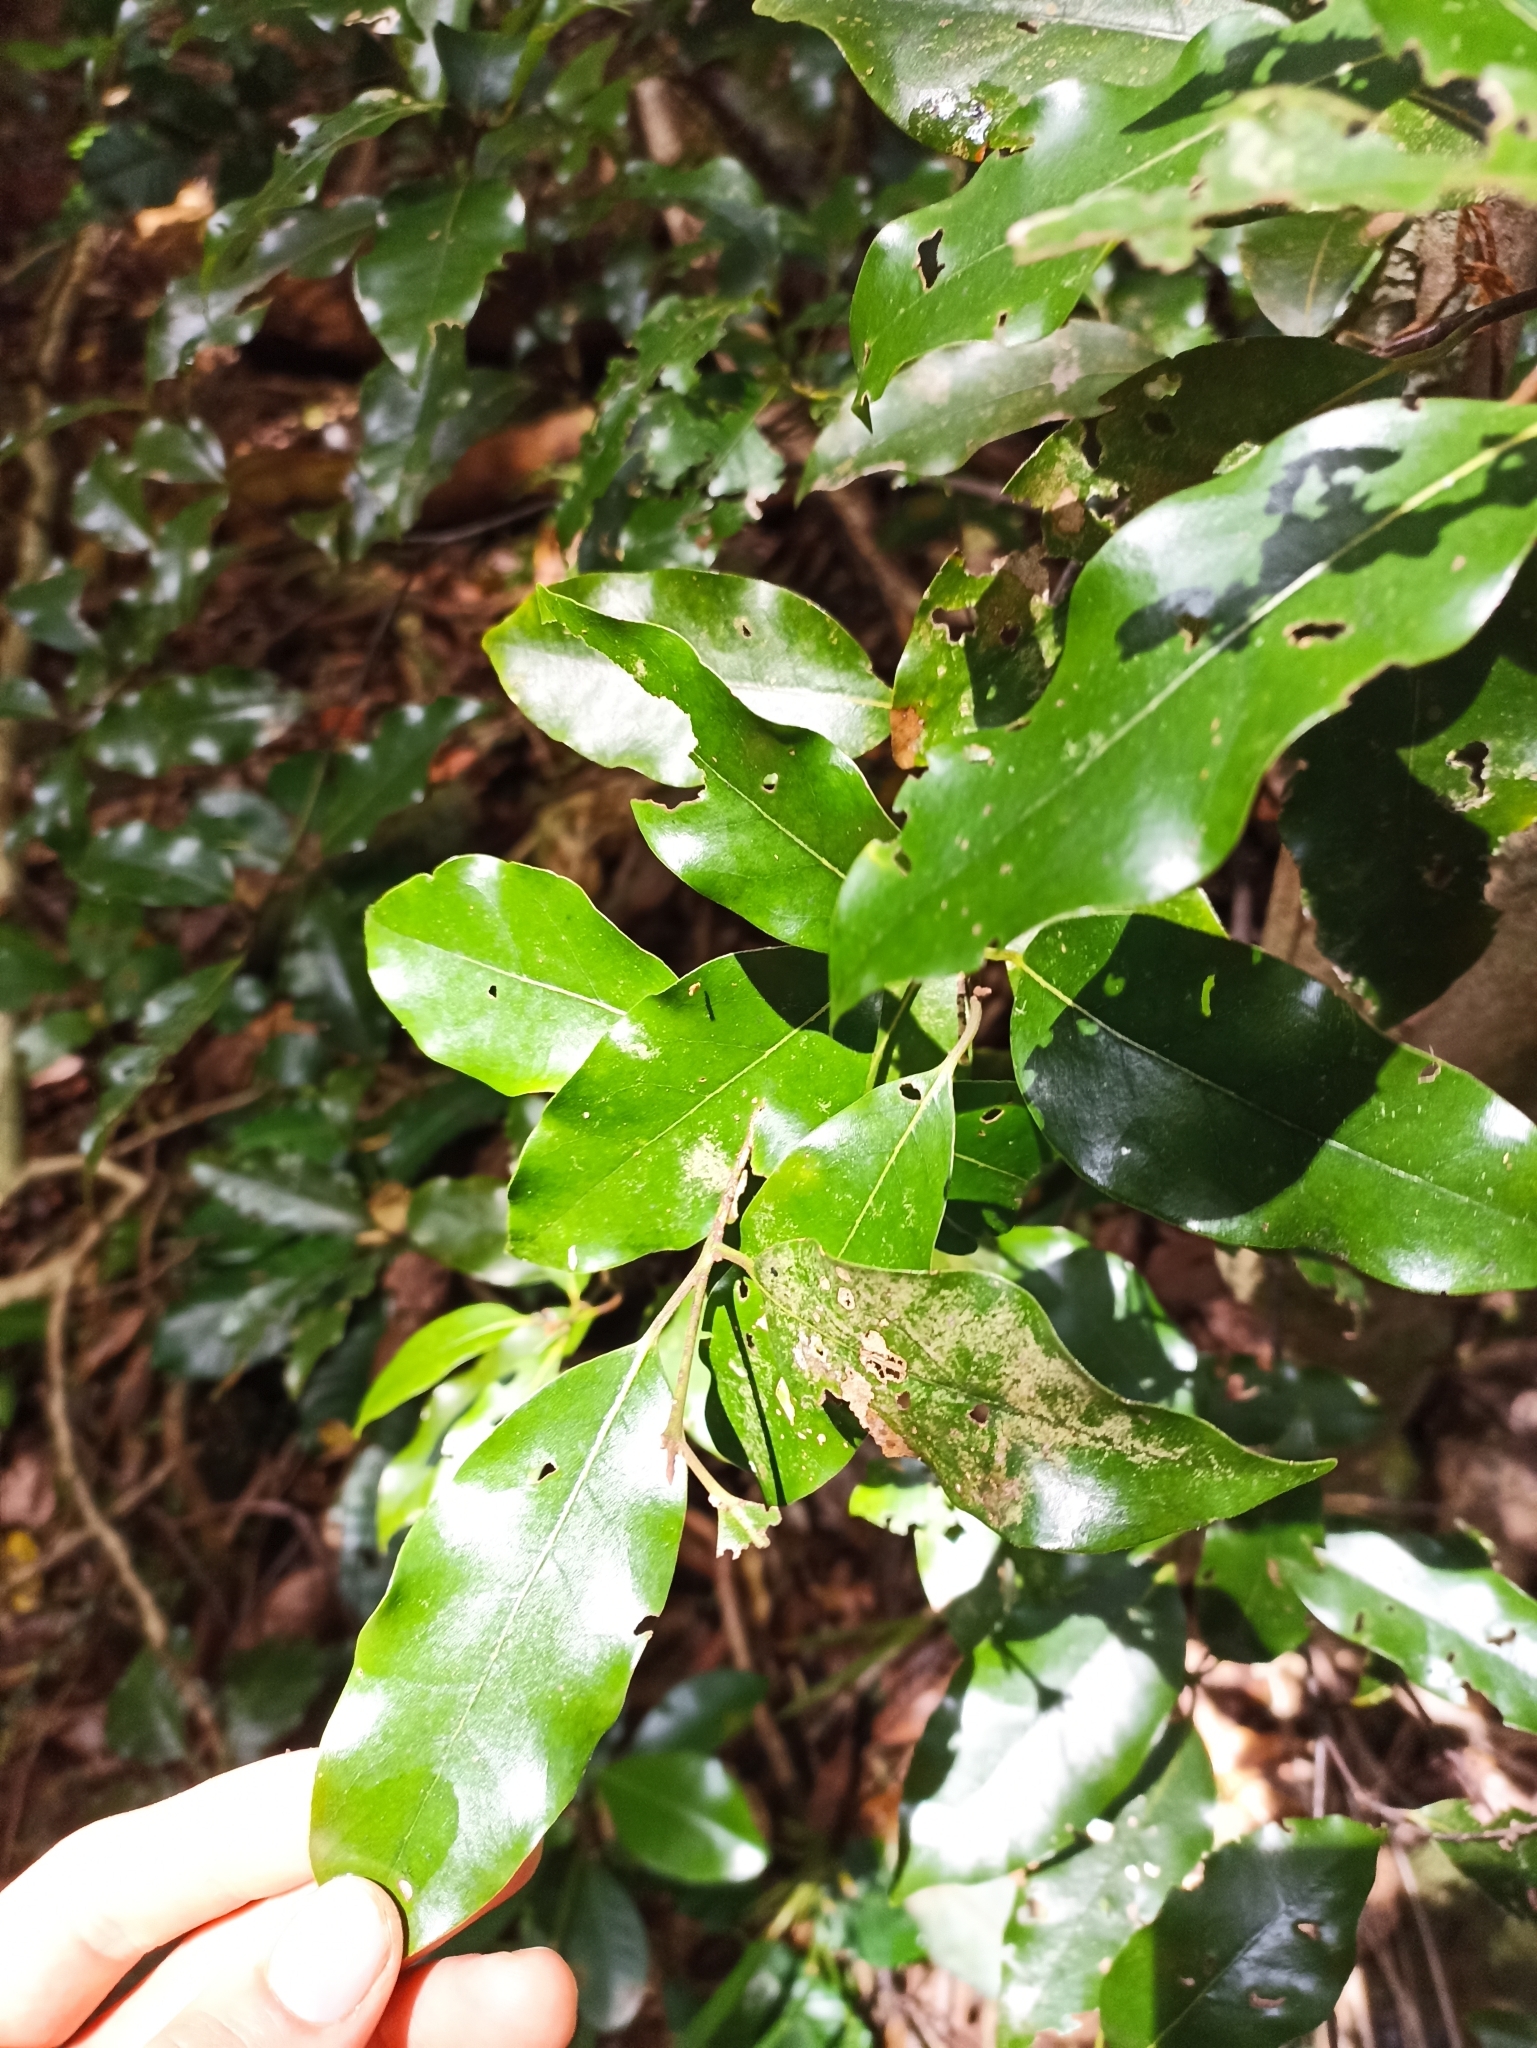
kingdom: Plantae
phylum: Tracheophyta
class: Magnoliopsida
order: Laurales
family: Lauraceae
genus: Beilschmiedia
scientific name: Beilschmiedia tawa
